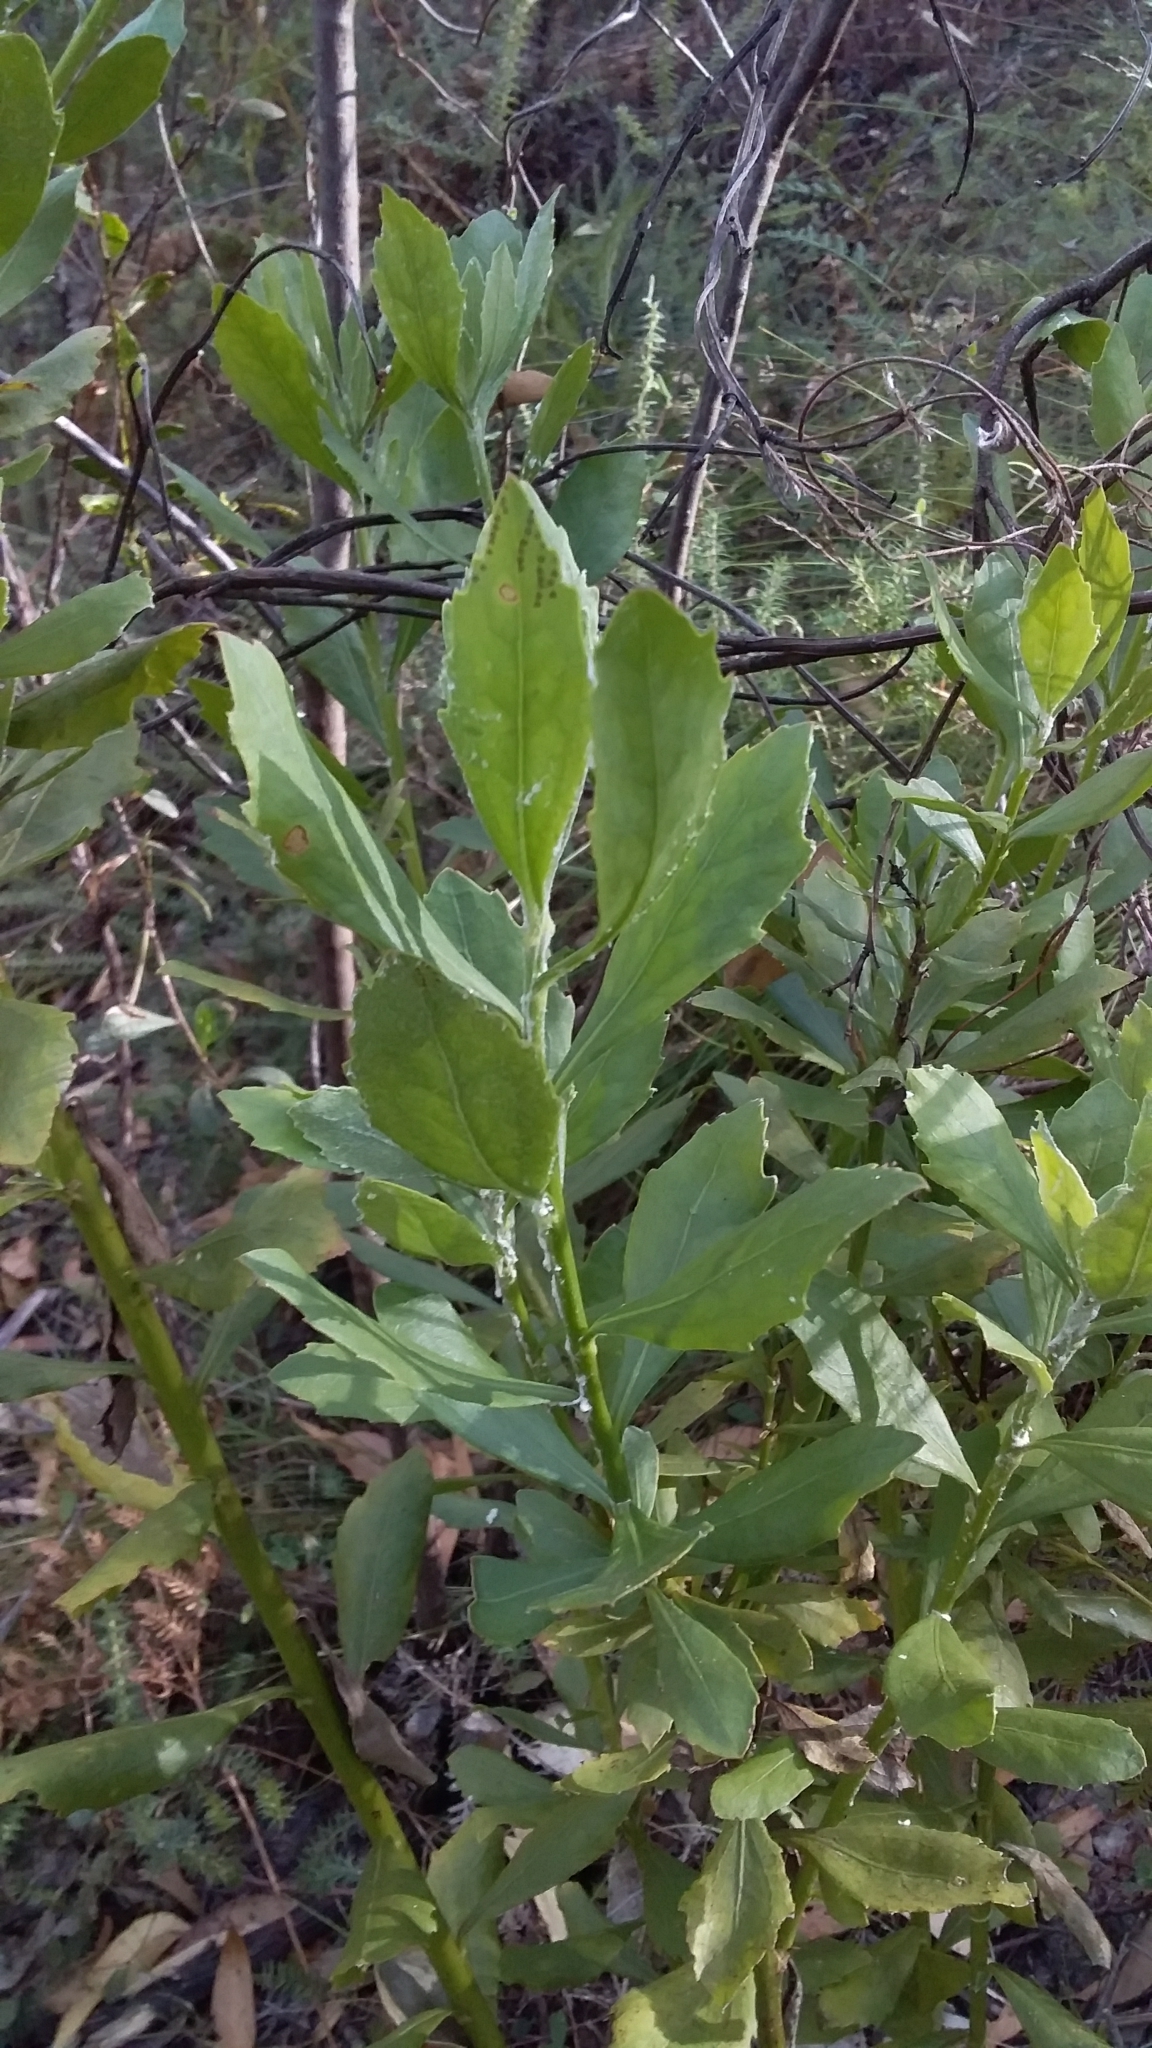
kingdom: Plantae
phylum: Tracheophyta
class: Magnoliopsida
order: Asterales
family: Asteraceae
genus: Osteospermum
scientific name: Osteospermum moniliferum
